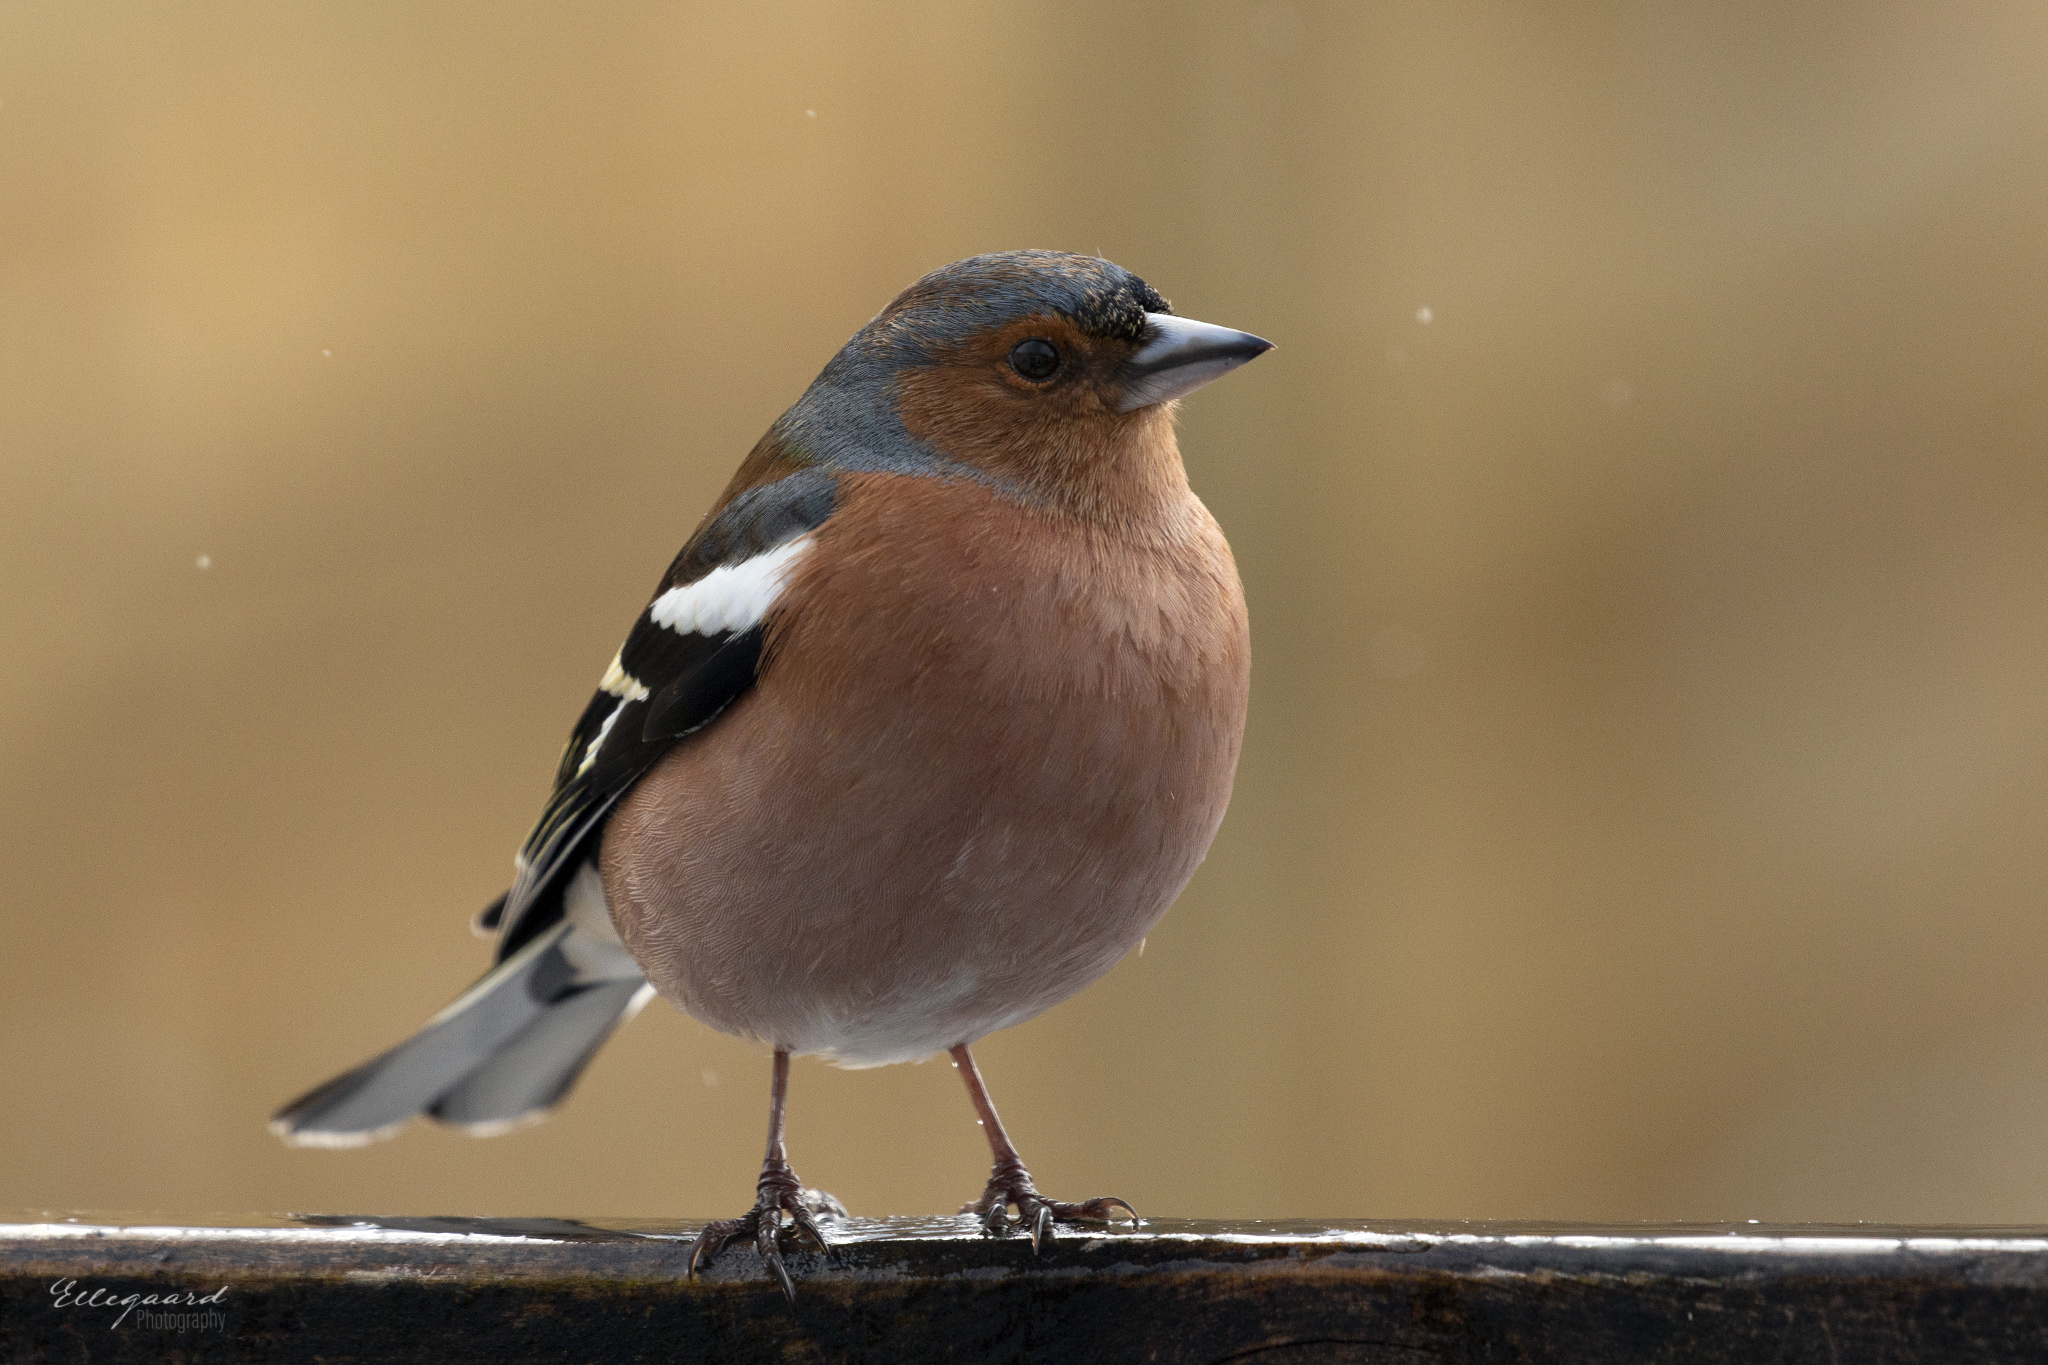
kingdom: Animalia
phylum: Chordata
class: Aves
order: Passeriformes
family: Fringillidae
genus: Fringilla
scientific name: Fringilla coelebs
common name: Common chaffinch
